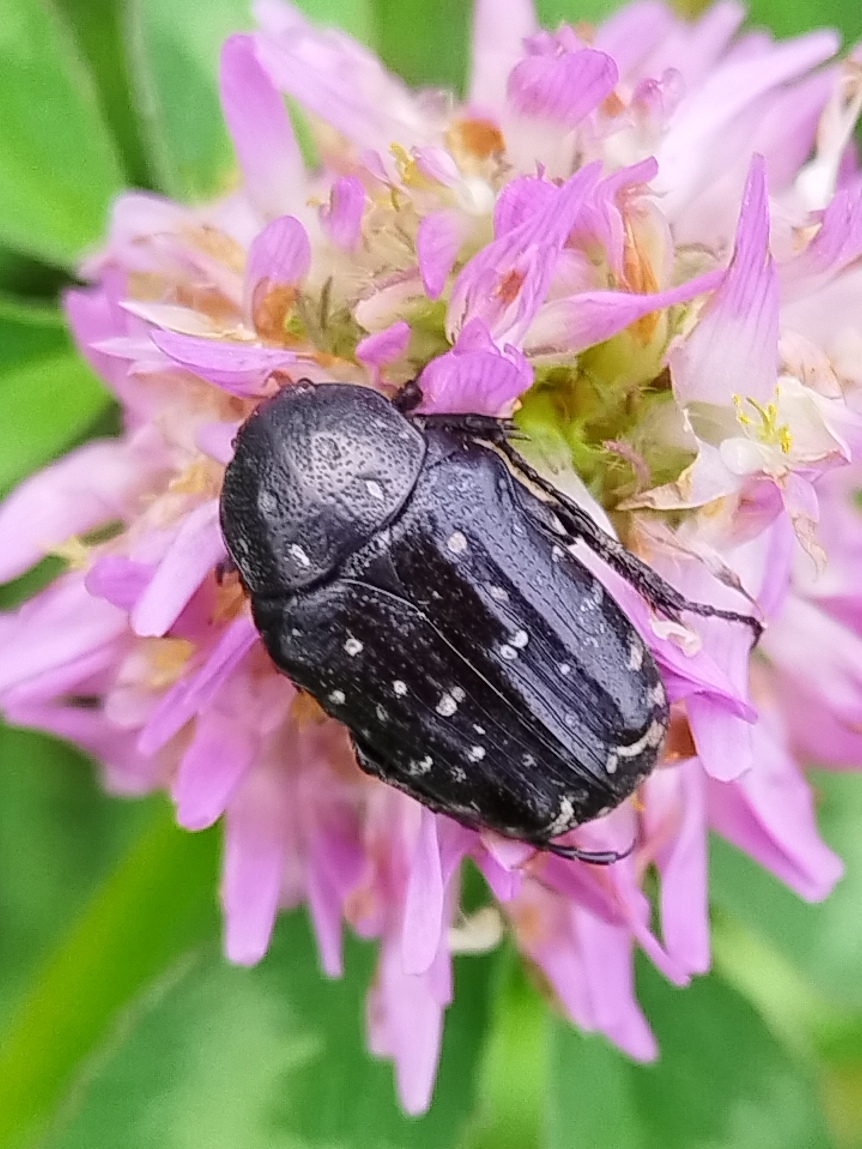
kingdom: Animalia
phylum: Arthropoda
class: Insecta
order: Coleoptera
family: Scarabaeidae
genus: Oxythyrea
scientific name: Oxythyrea funesta
